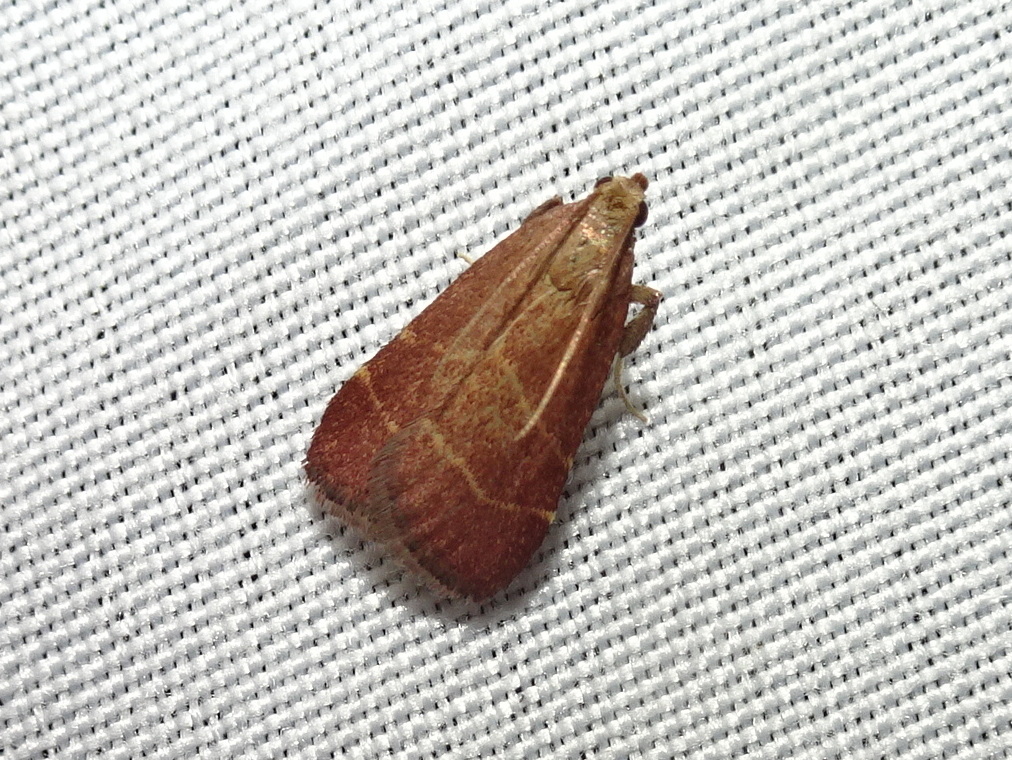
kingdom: Animalia
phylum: Arthropoda
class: Insecta
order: Lepidoptera
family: Pyralidae
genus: Arta
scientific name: Arta statalis
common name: Posturing arta moth
